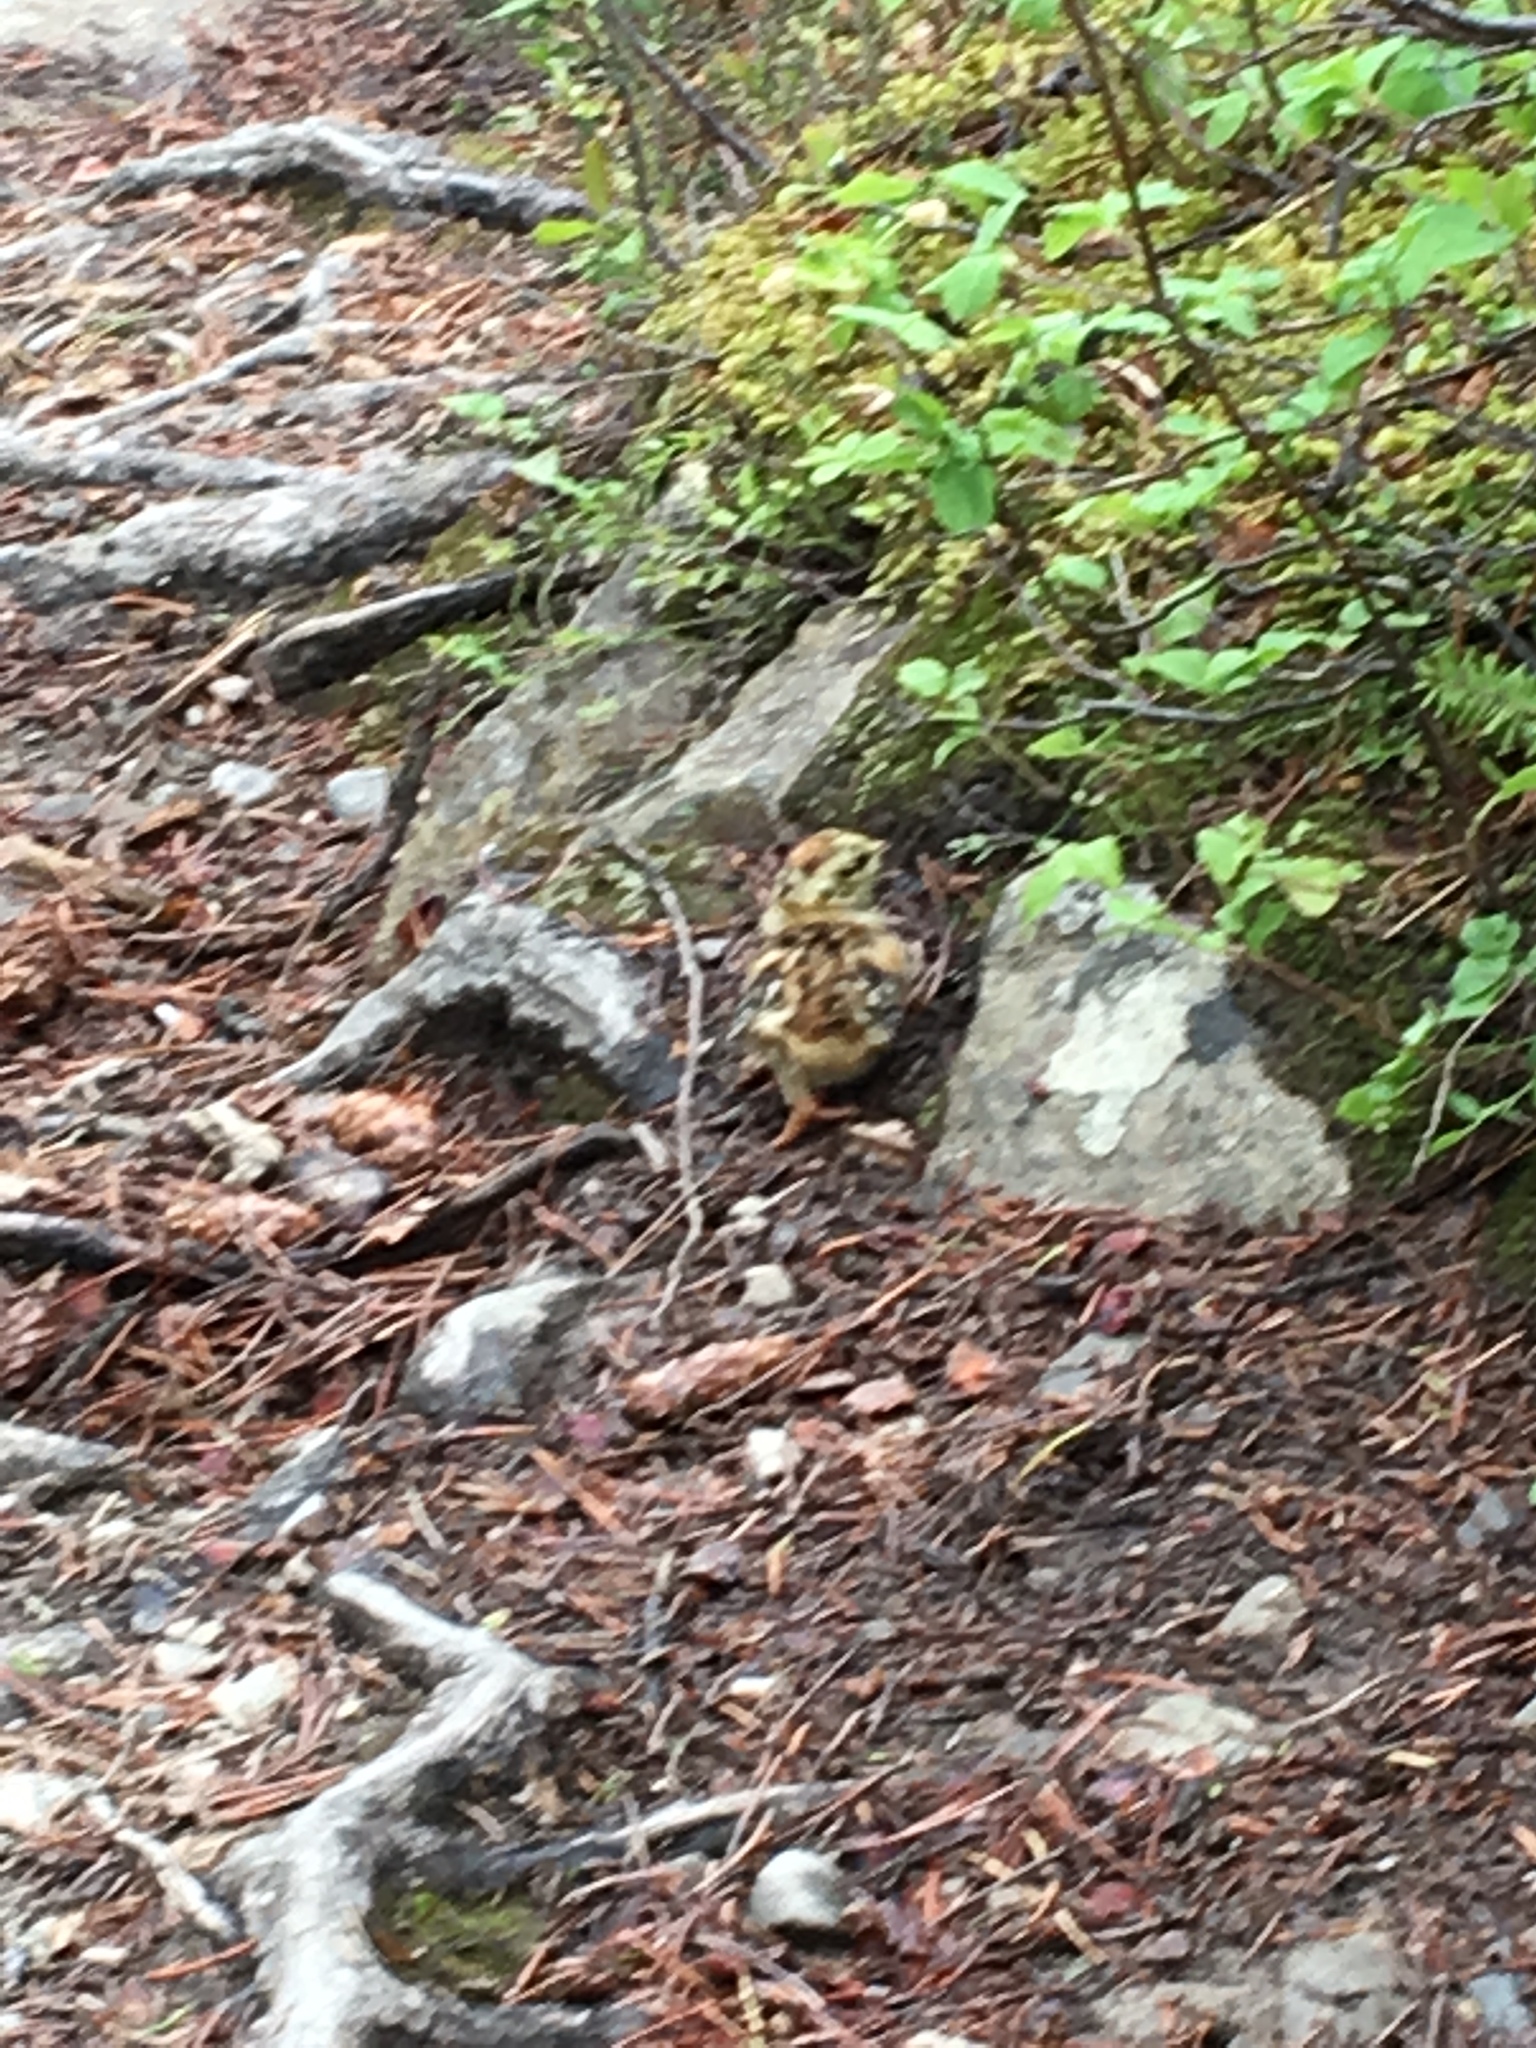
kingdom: Animalia
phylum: Chordata
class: Aves
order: Galliformes
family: Phasianidae
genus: Canachites
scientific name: Canachites canadensis
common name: Spruce grouse
